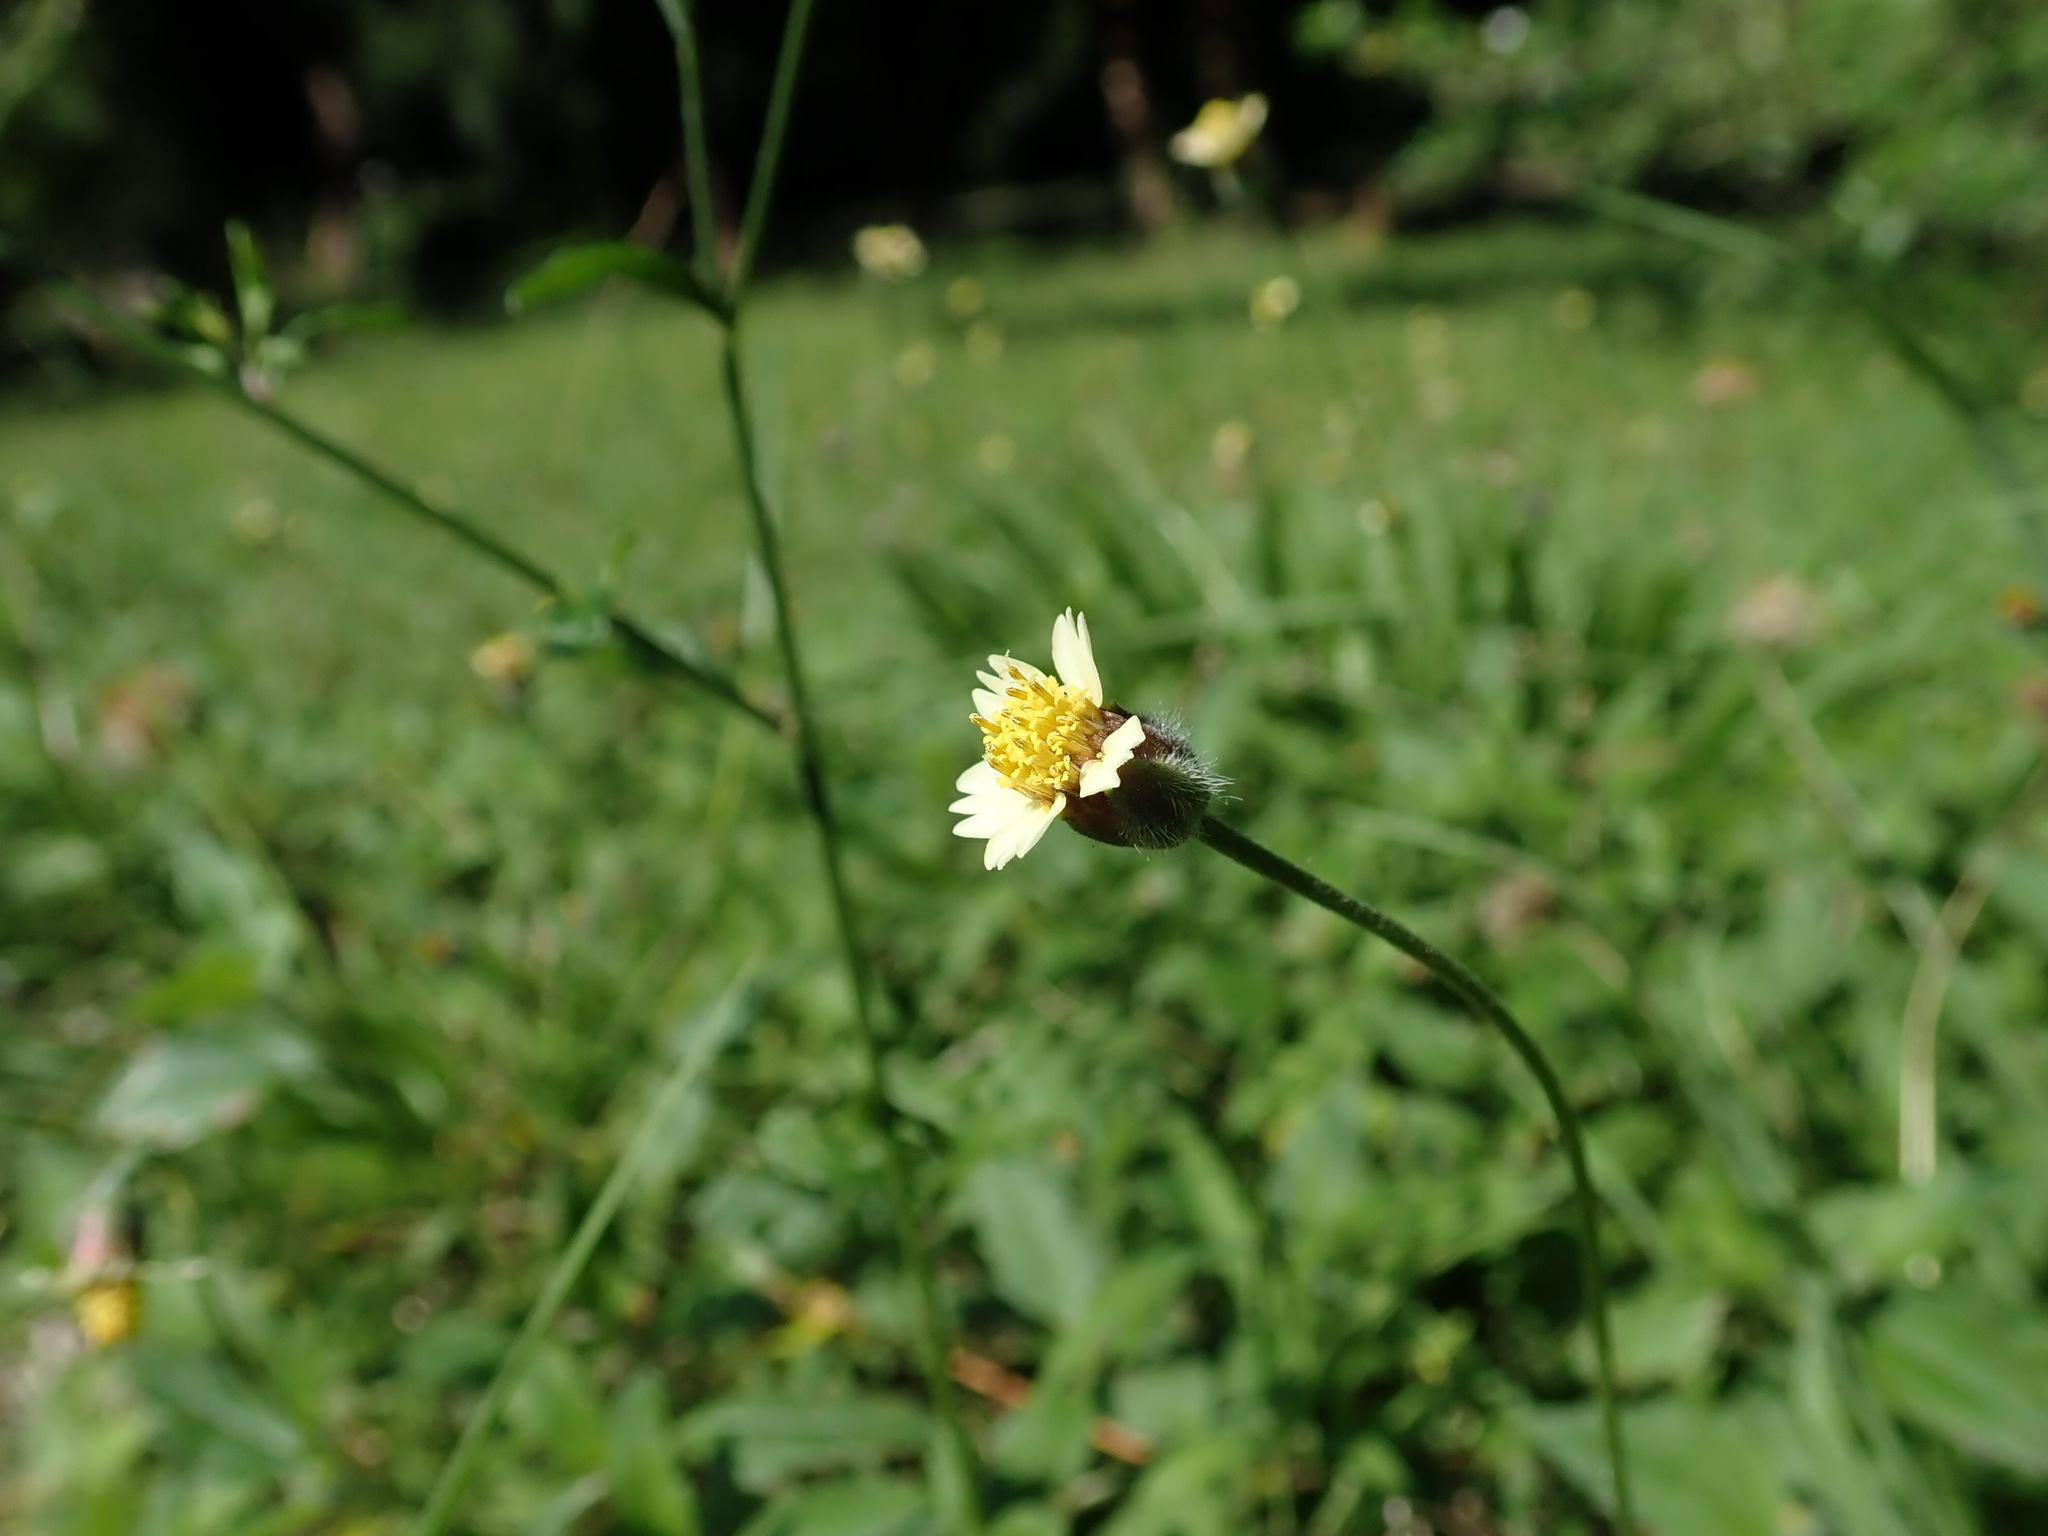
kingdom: Plantae
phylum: Tracheophyta
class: Magnoliopsida
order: Asterales
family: Asteraceae
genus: Tridax
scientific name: Tridax procumbens
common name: Coatbuttons
